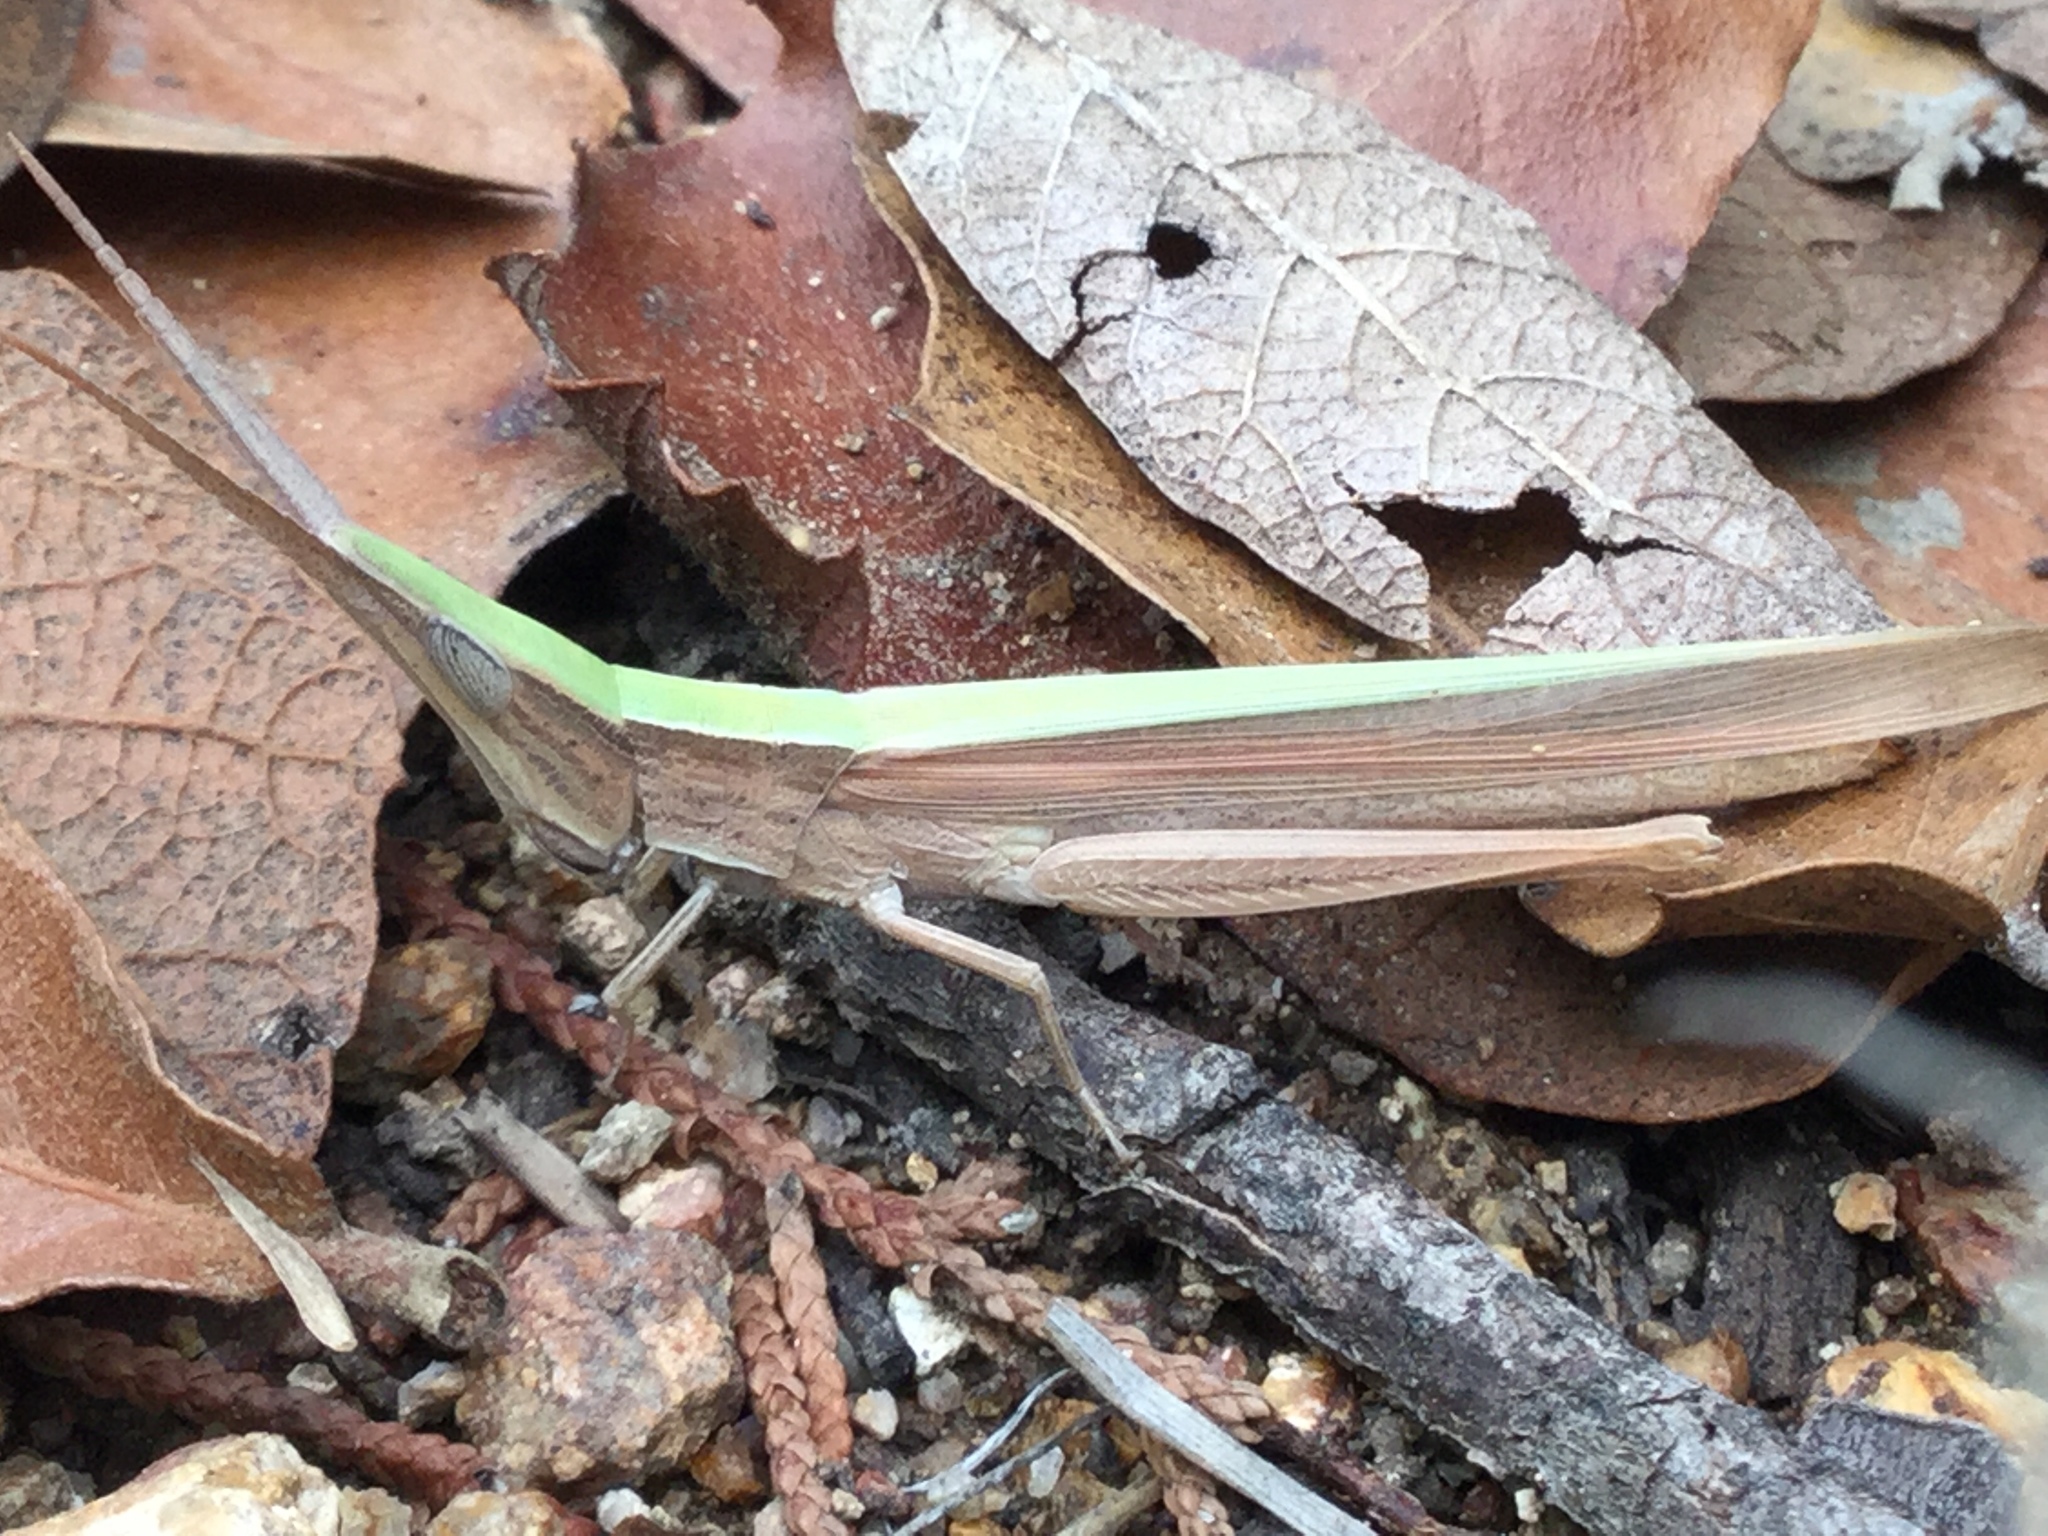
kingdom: Animalia
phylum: Arthropoda
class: Insecta
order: Orthoptera
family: Acrididae
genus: Achurum
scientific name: Achurum sumichrasti
